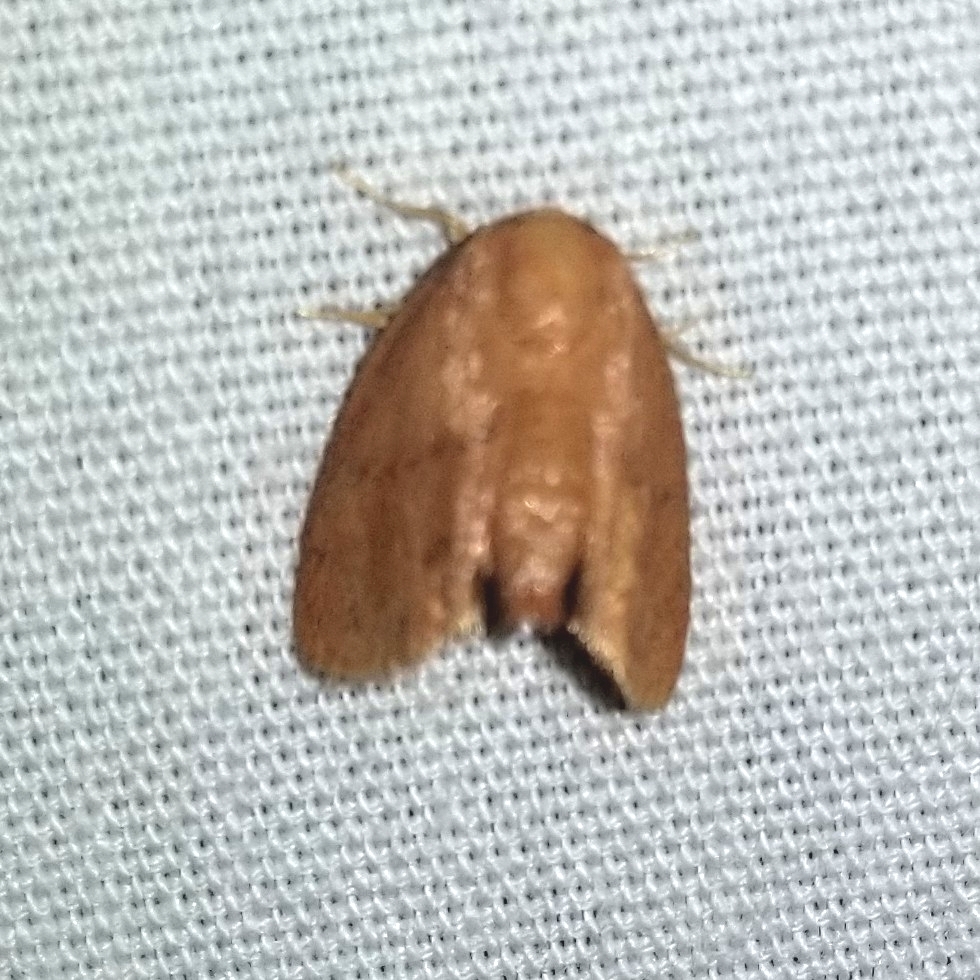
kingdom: Animalia
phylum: Arthropoda
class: Insecta
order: Lepidoptera
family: Limacodidae
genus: Heterogenea
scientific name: Heterogenea shurtleffi
